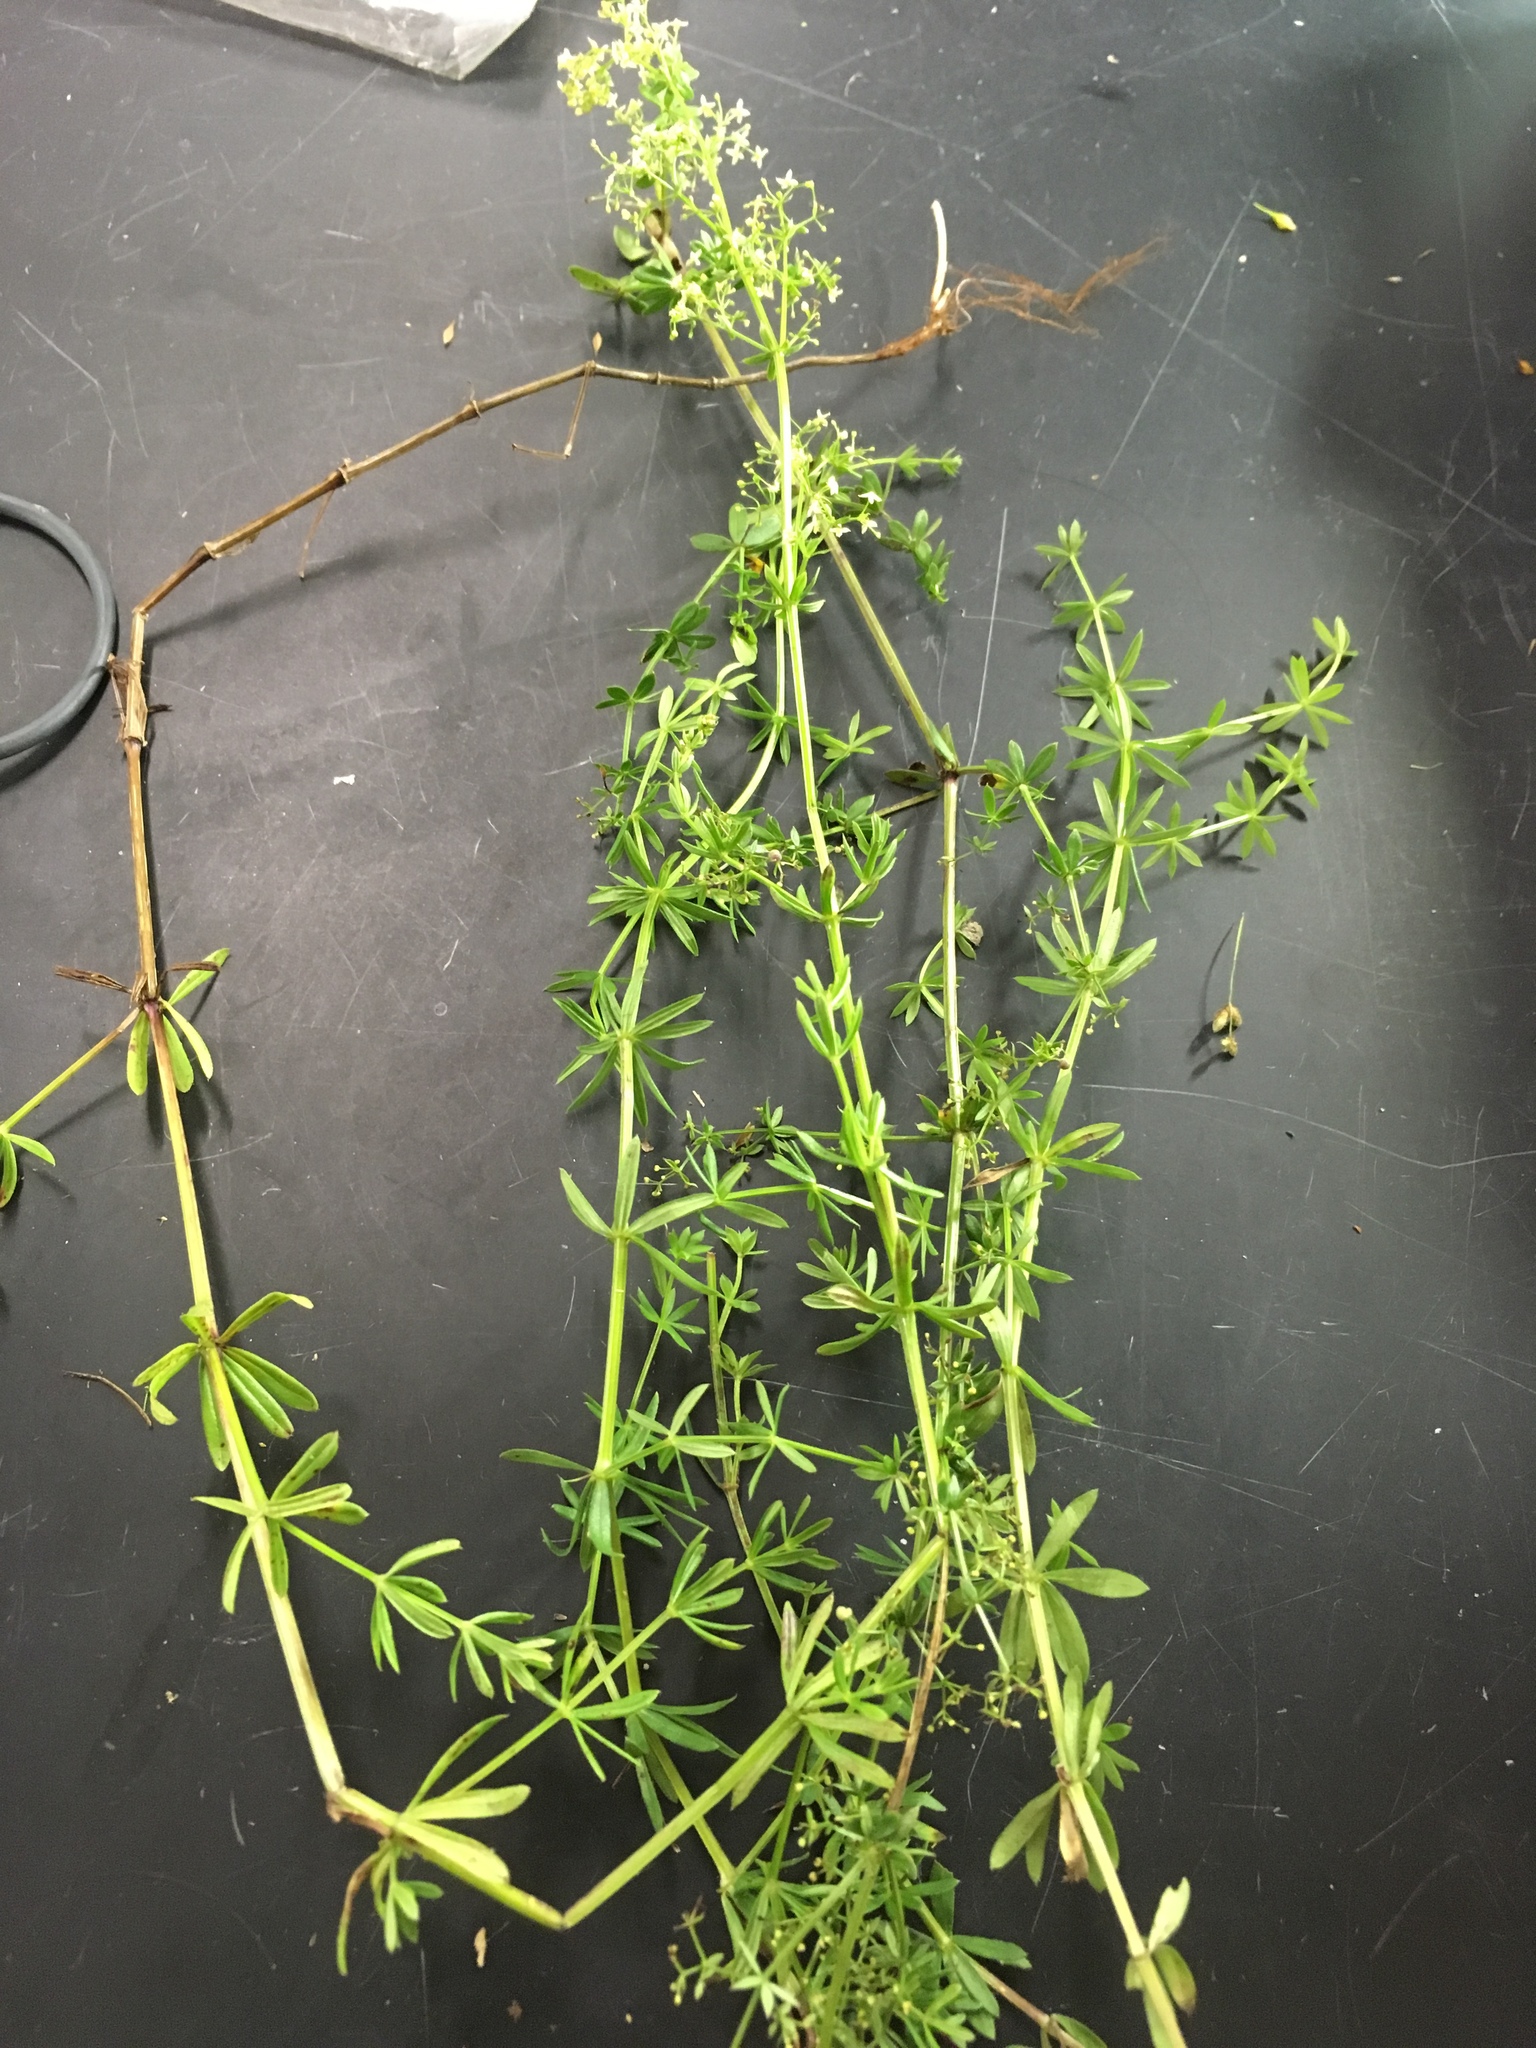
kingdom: Plantae
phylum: Tracheophyta
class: Magnoliopsida
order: Gentianales
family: Rubiaceae
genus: Galium
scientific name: Galium mollugo
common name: Hedge bedstraw
